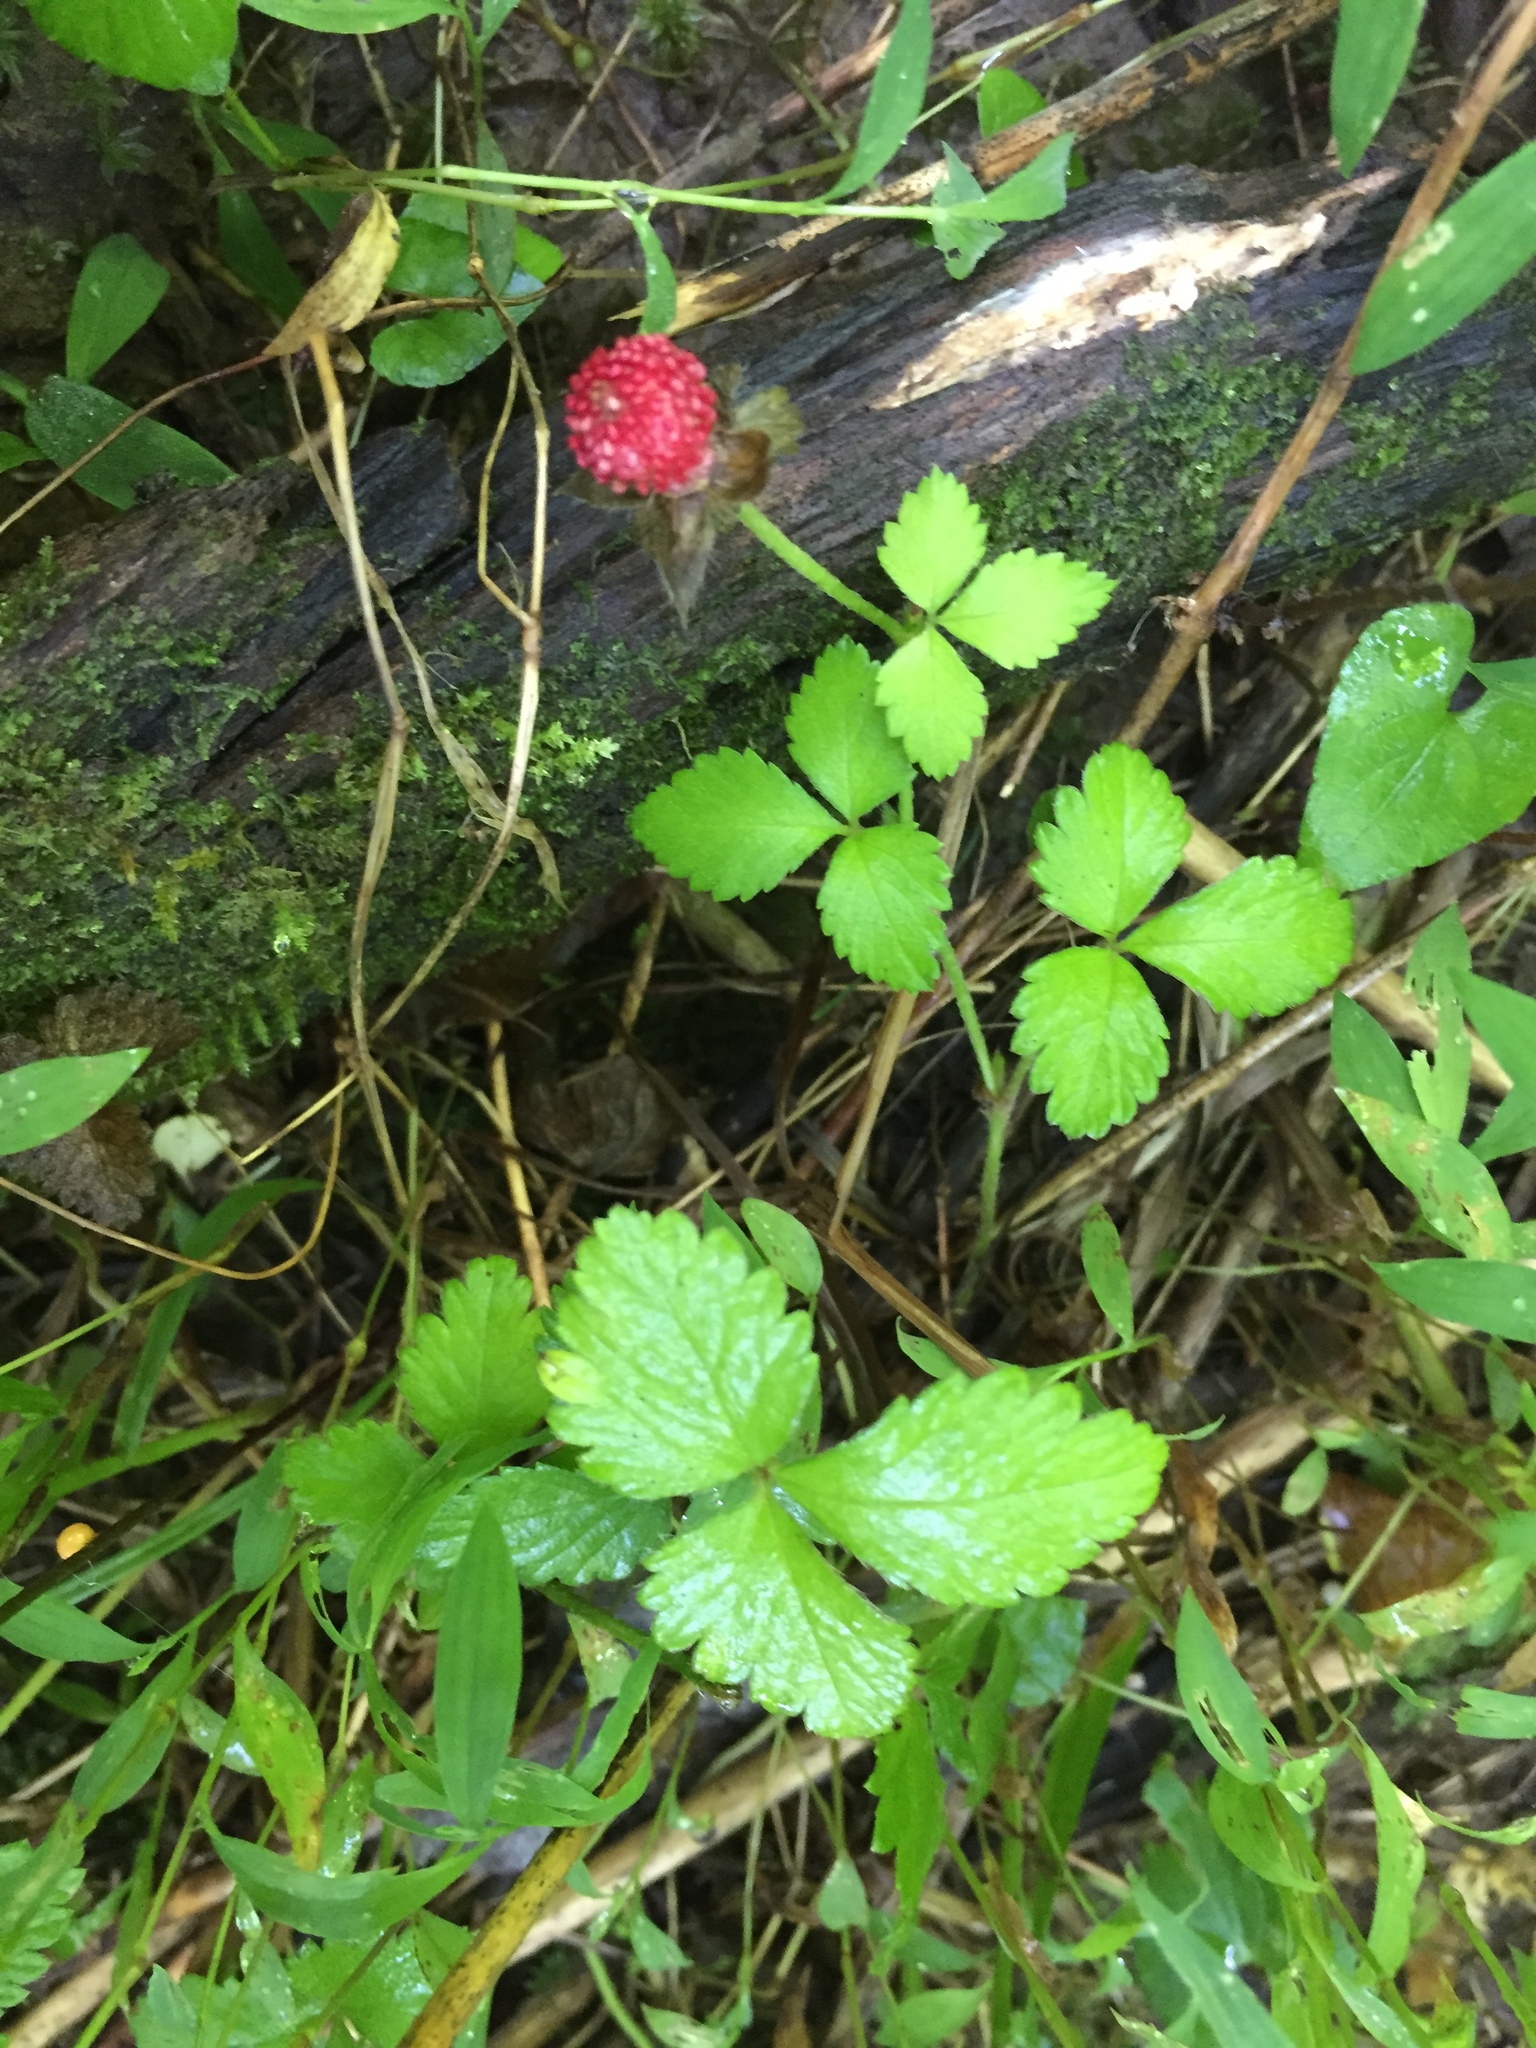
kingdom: Plantae
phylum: Tracheophyta
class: Magnoliopsida
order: Rosales
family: Rosaceae
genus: Potentilla
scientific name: Potentilla indica
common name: Yellow-flowered strawberry
